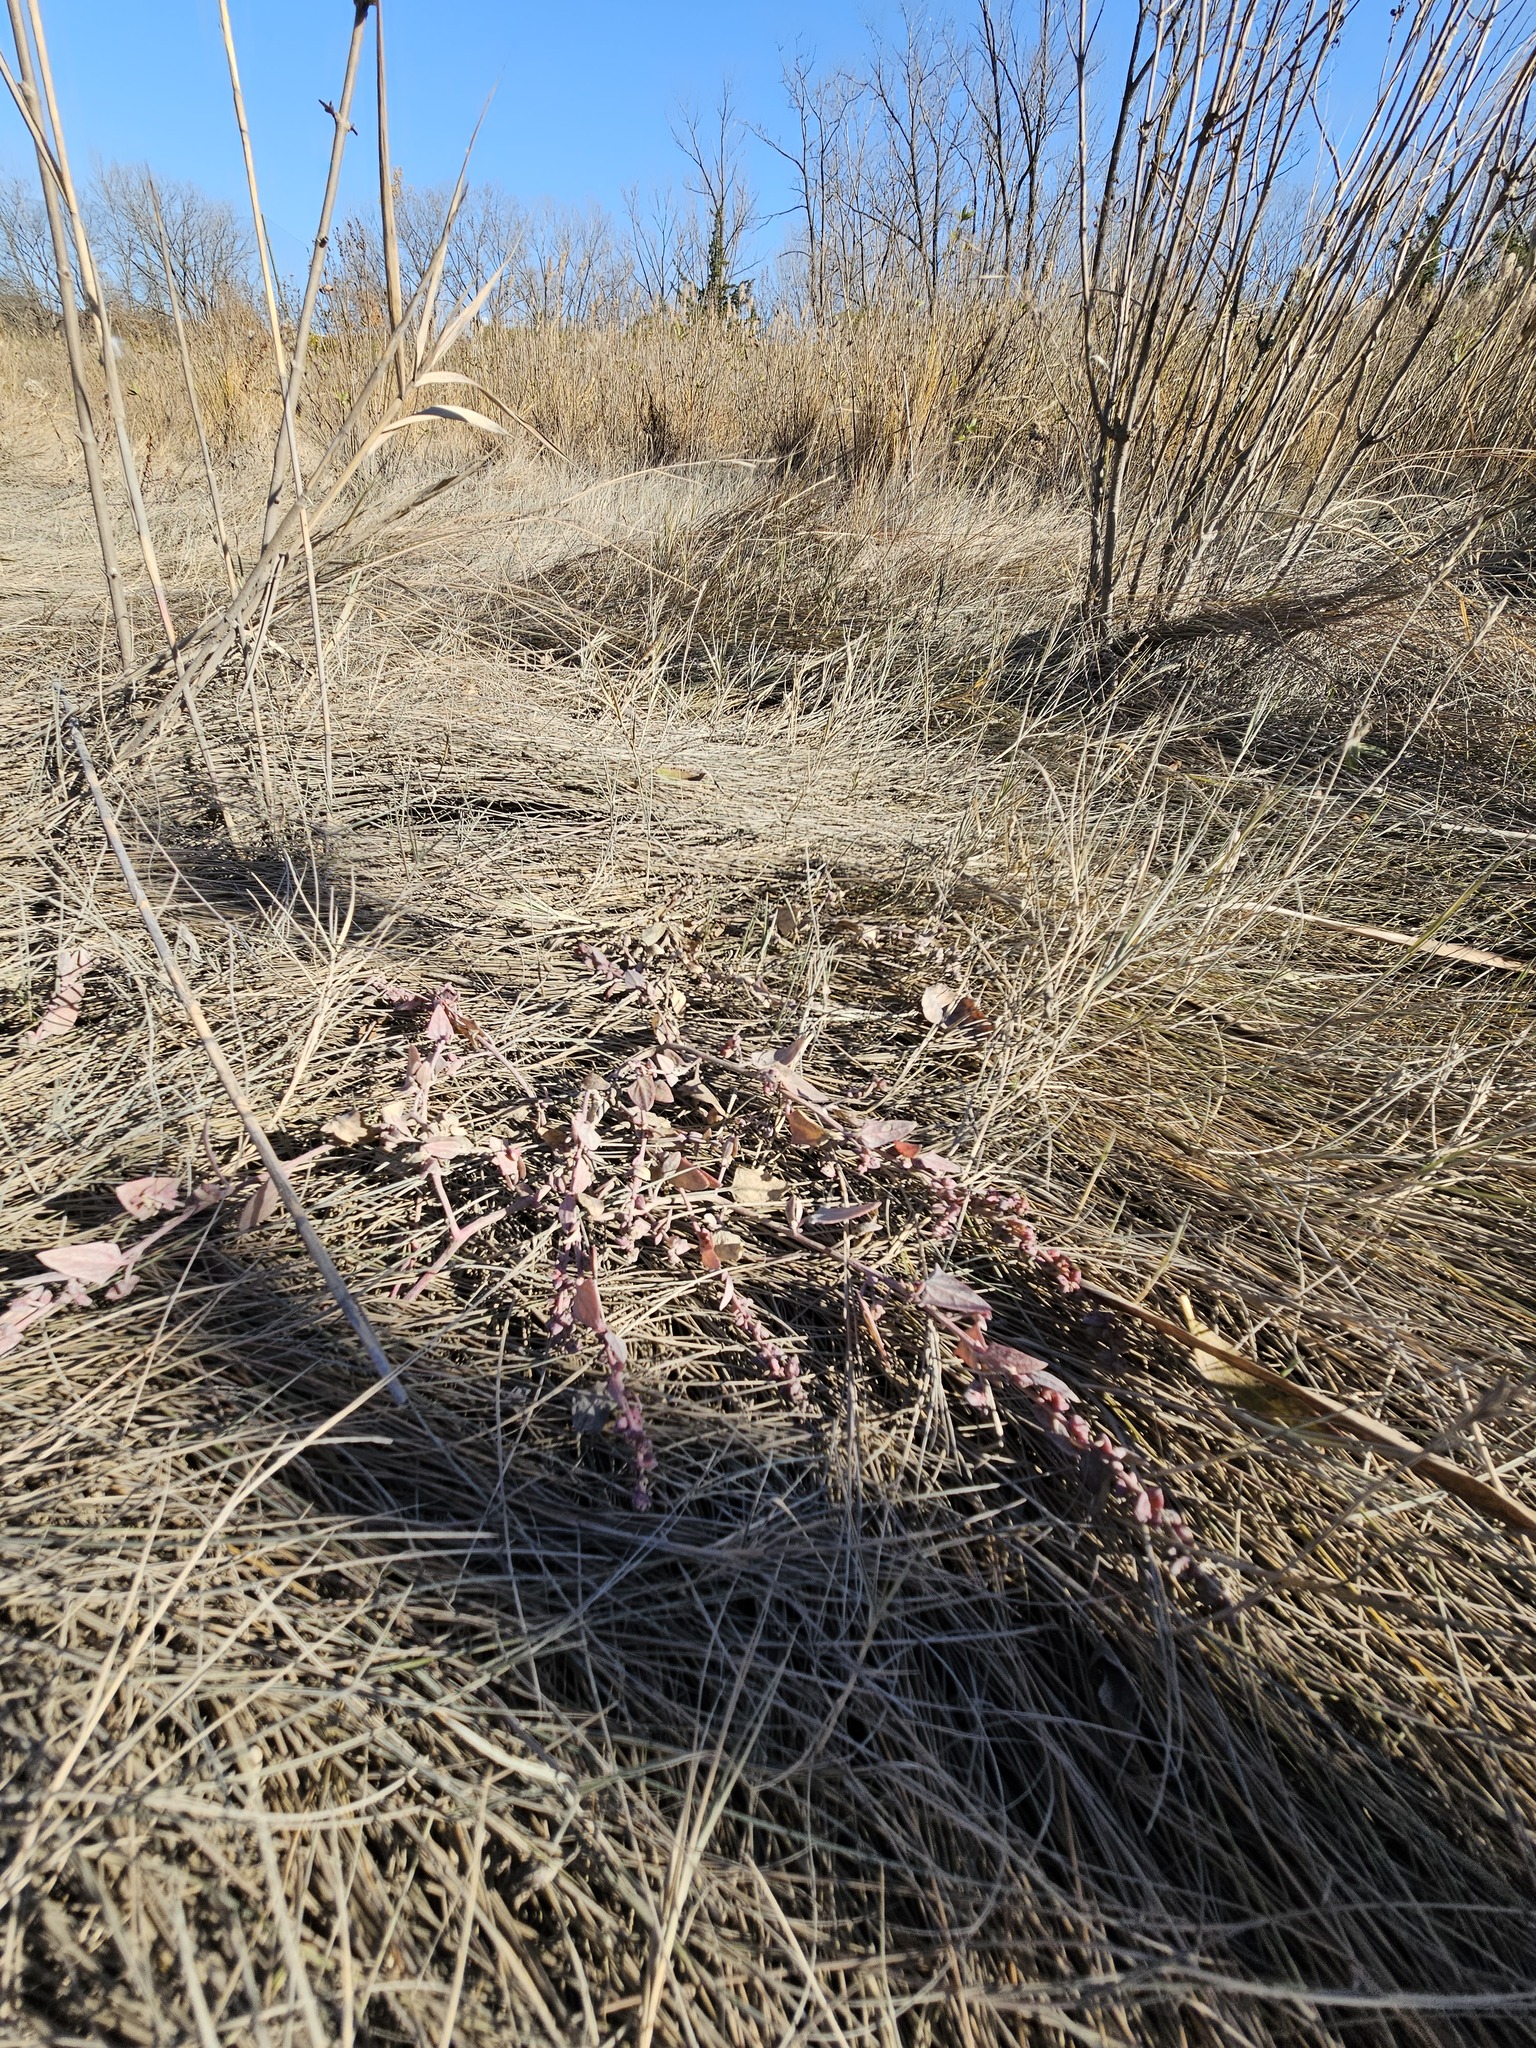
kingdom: Plantae
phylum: Tracheophyta
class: Magnoliopsida
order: Caryophyllales
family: Amaranthaceae
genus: Atriplex
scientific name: Atriplex prostrata
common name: Spear-leaved orache
